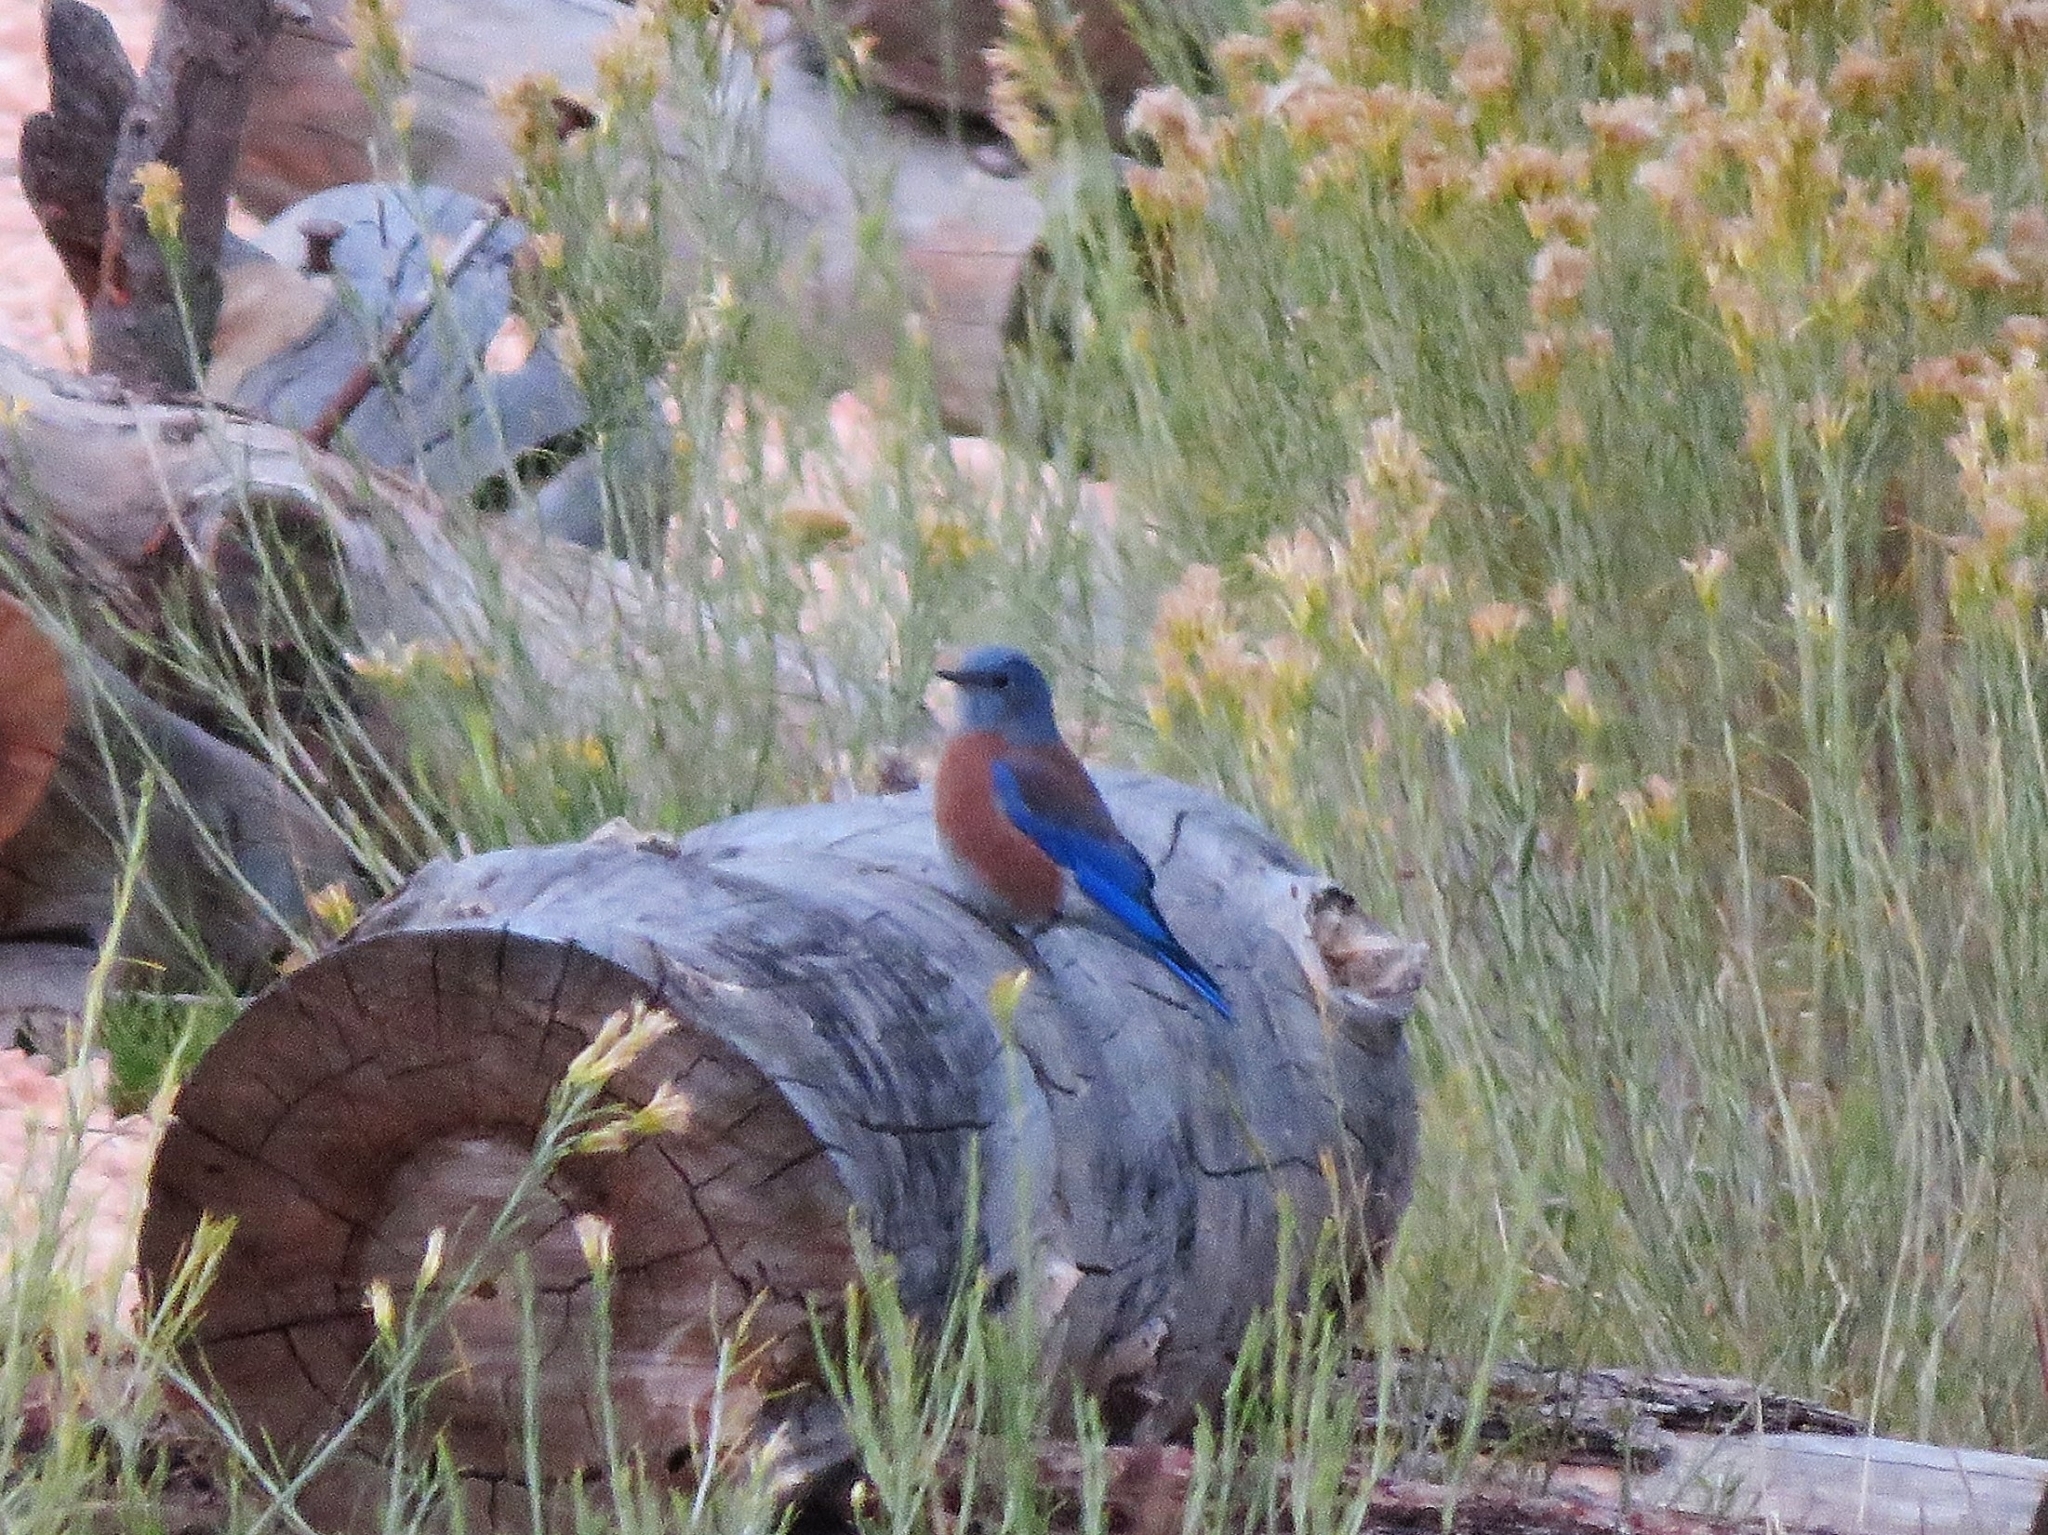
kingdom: Animalia
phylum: Chordata
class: Aves
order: Passeriformes
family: Turdidae
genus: Sialia
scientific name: Sialia mexicana
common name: Western bluebird
